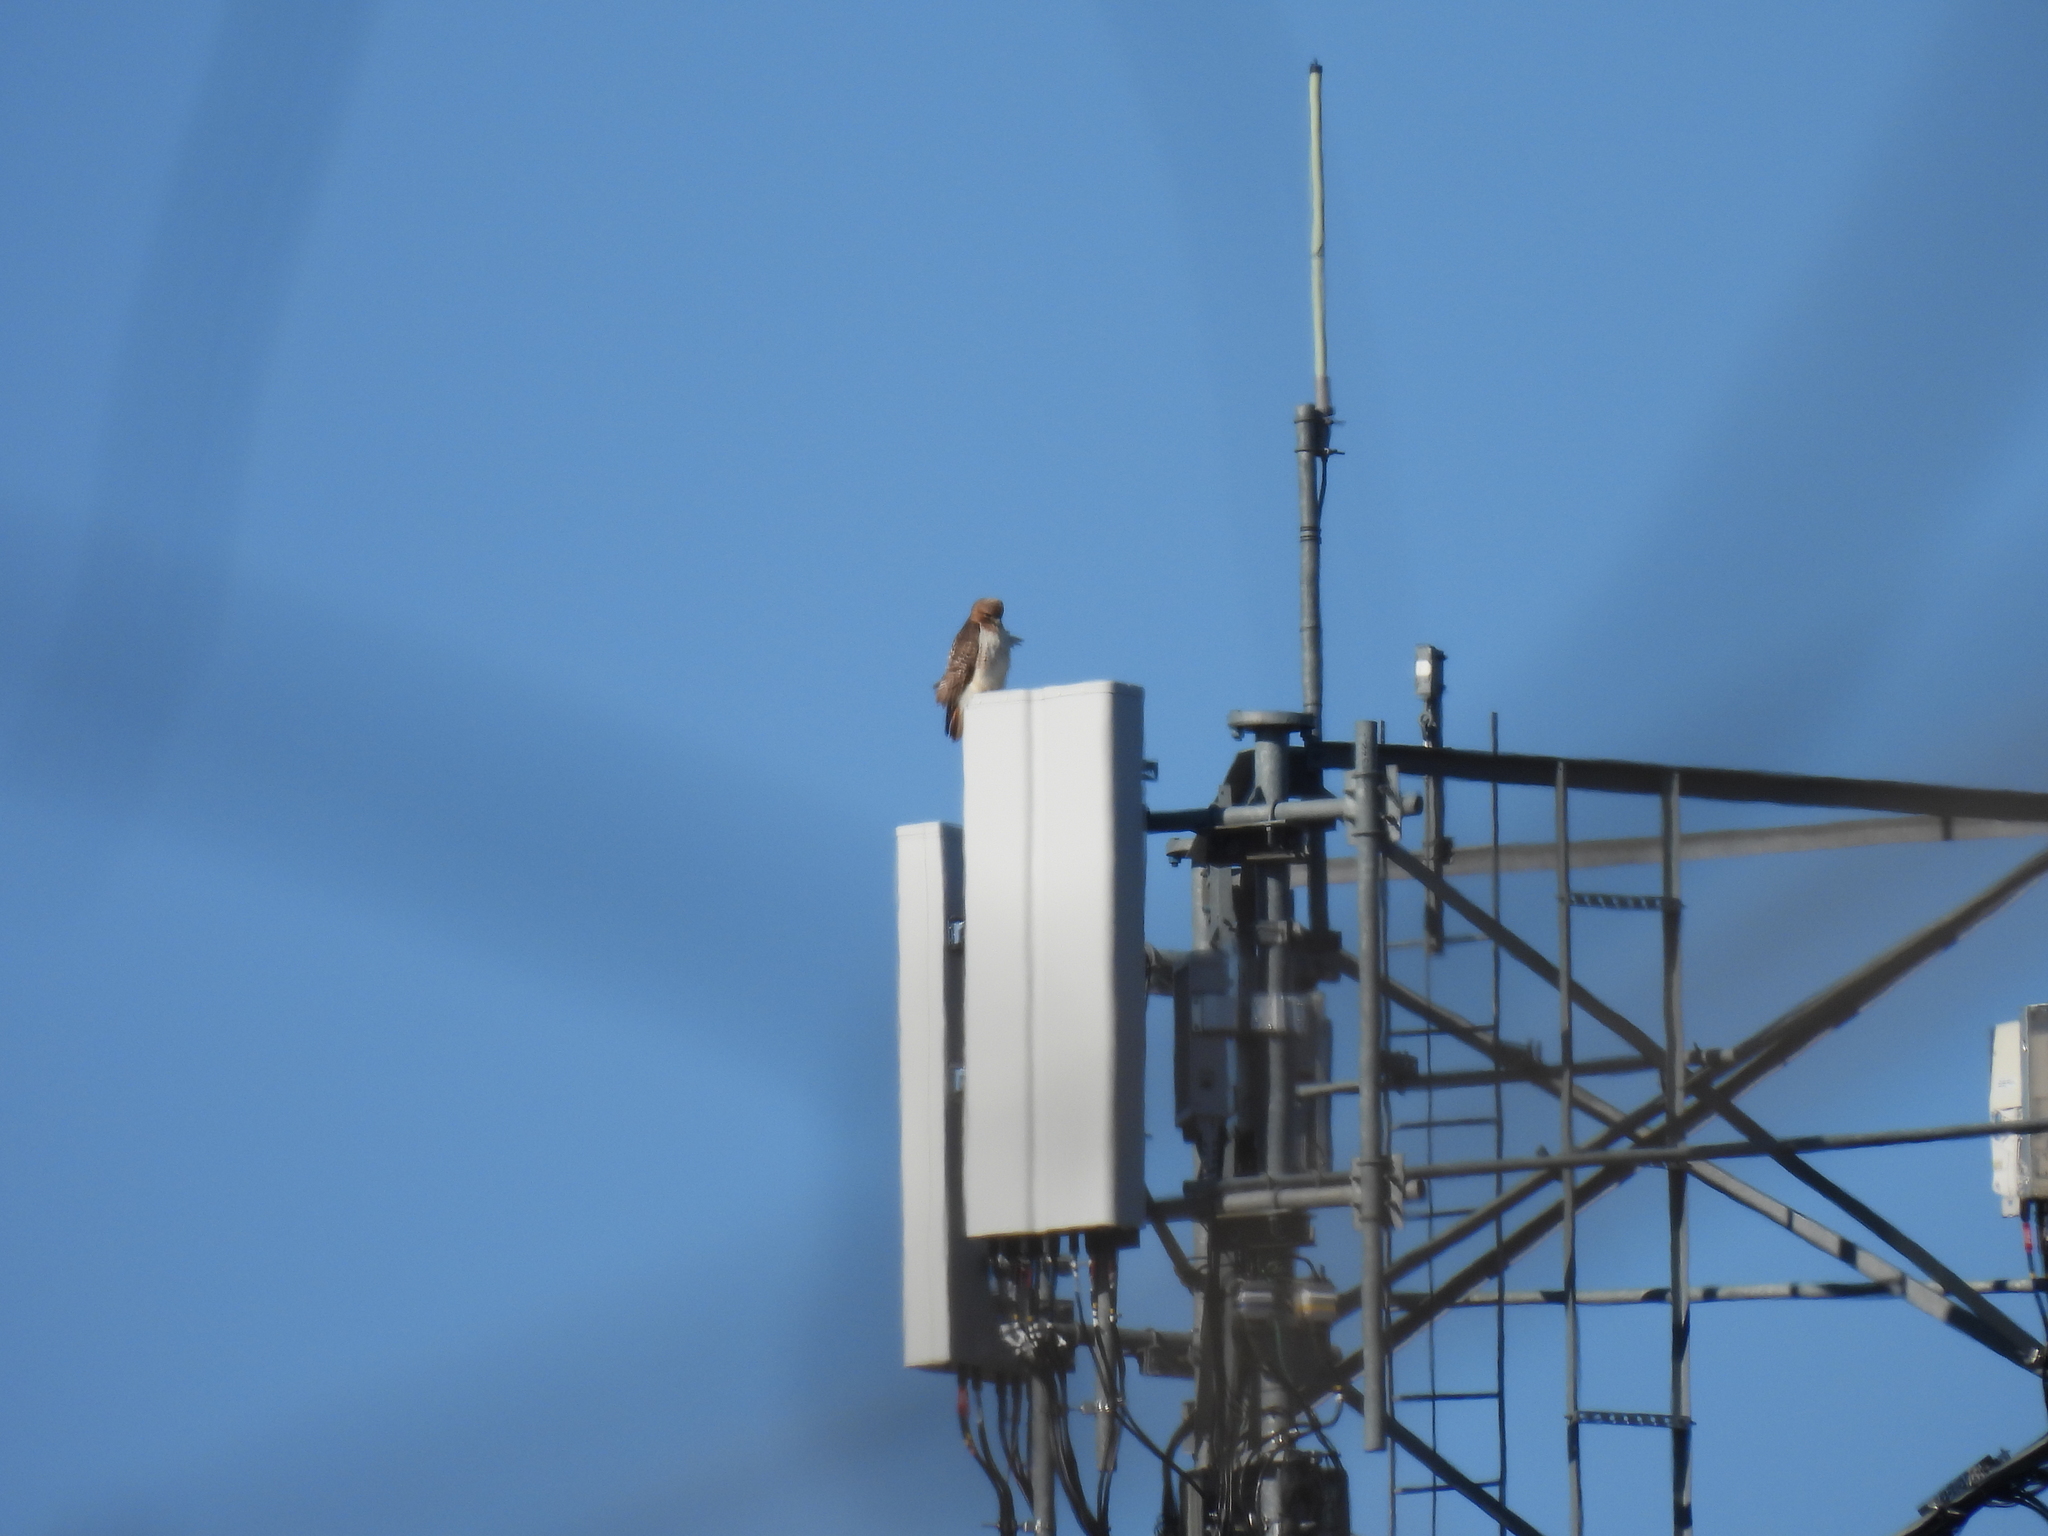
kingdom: Animalia
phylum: Chordata
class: Aves
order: Accipitriformes
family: Accipitridae
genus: Buteo
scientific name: Buteo jamaicensis
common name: Red-tailed hawk
